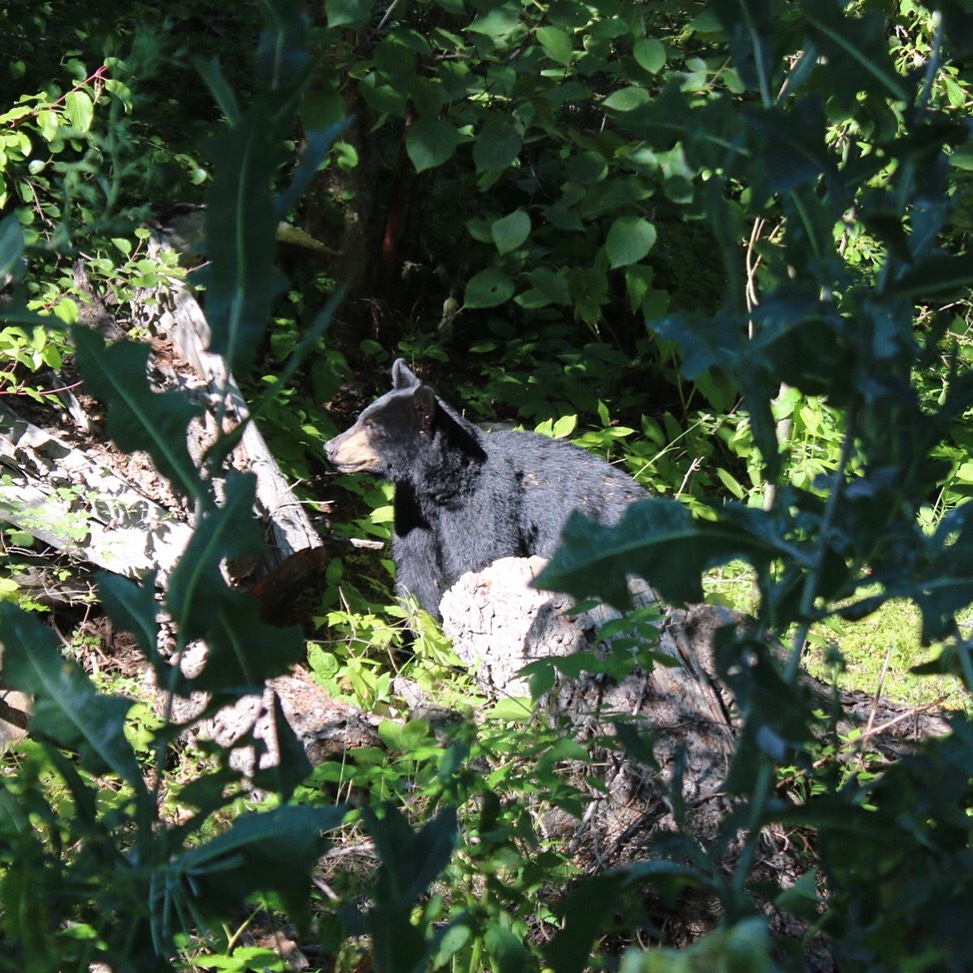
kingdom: Animalia
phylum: Chordata
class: Mammalia
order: Carnivora
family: Ursidae
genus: Ursus
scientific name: Ursus americanus
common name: American black bear
